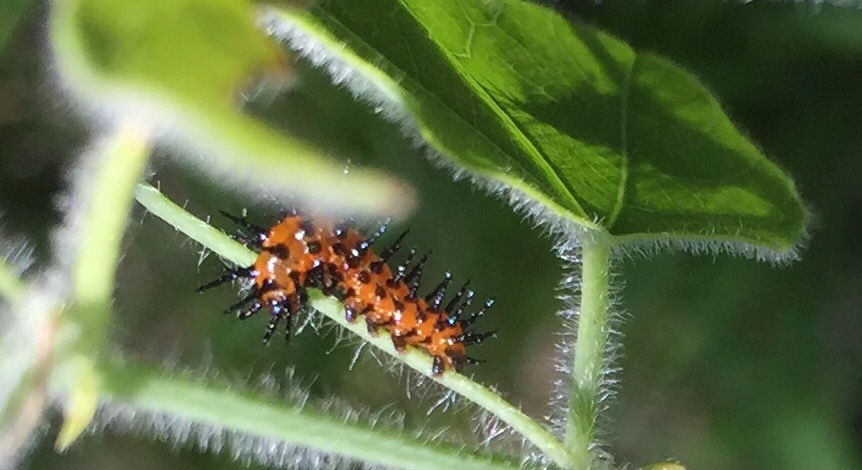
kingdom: Animalia
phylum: Arthropoda
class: Insecta
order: Lepidoptera
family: Nymphalidae
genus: Dione
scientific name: Dione vanillae
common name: Gulf fritillary
